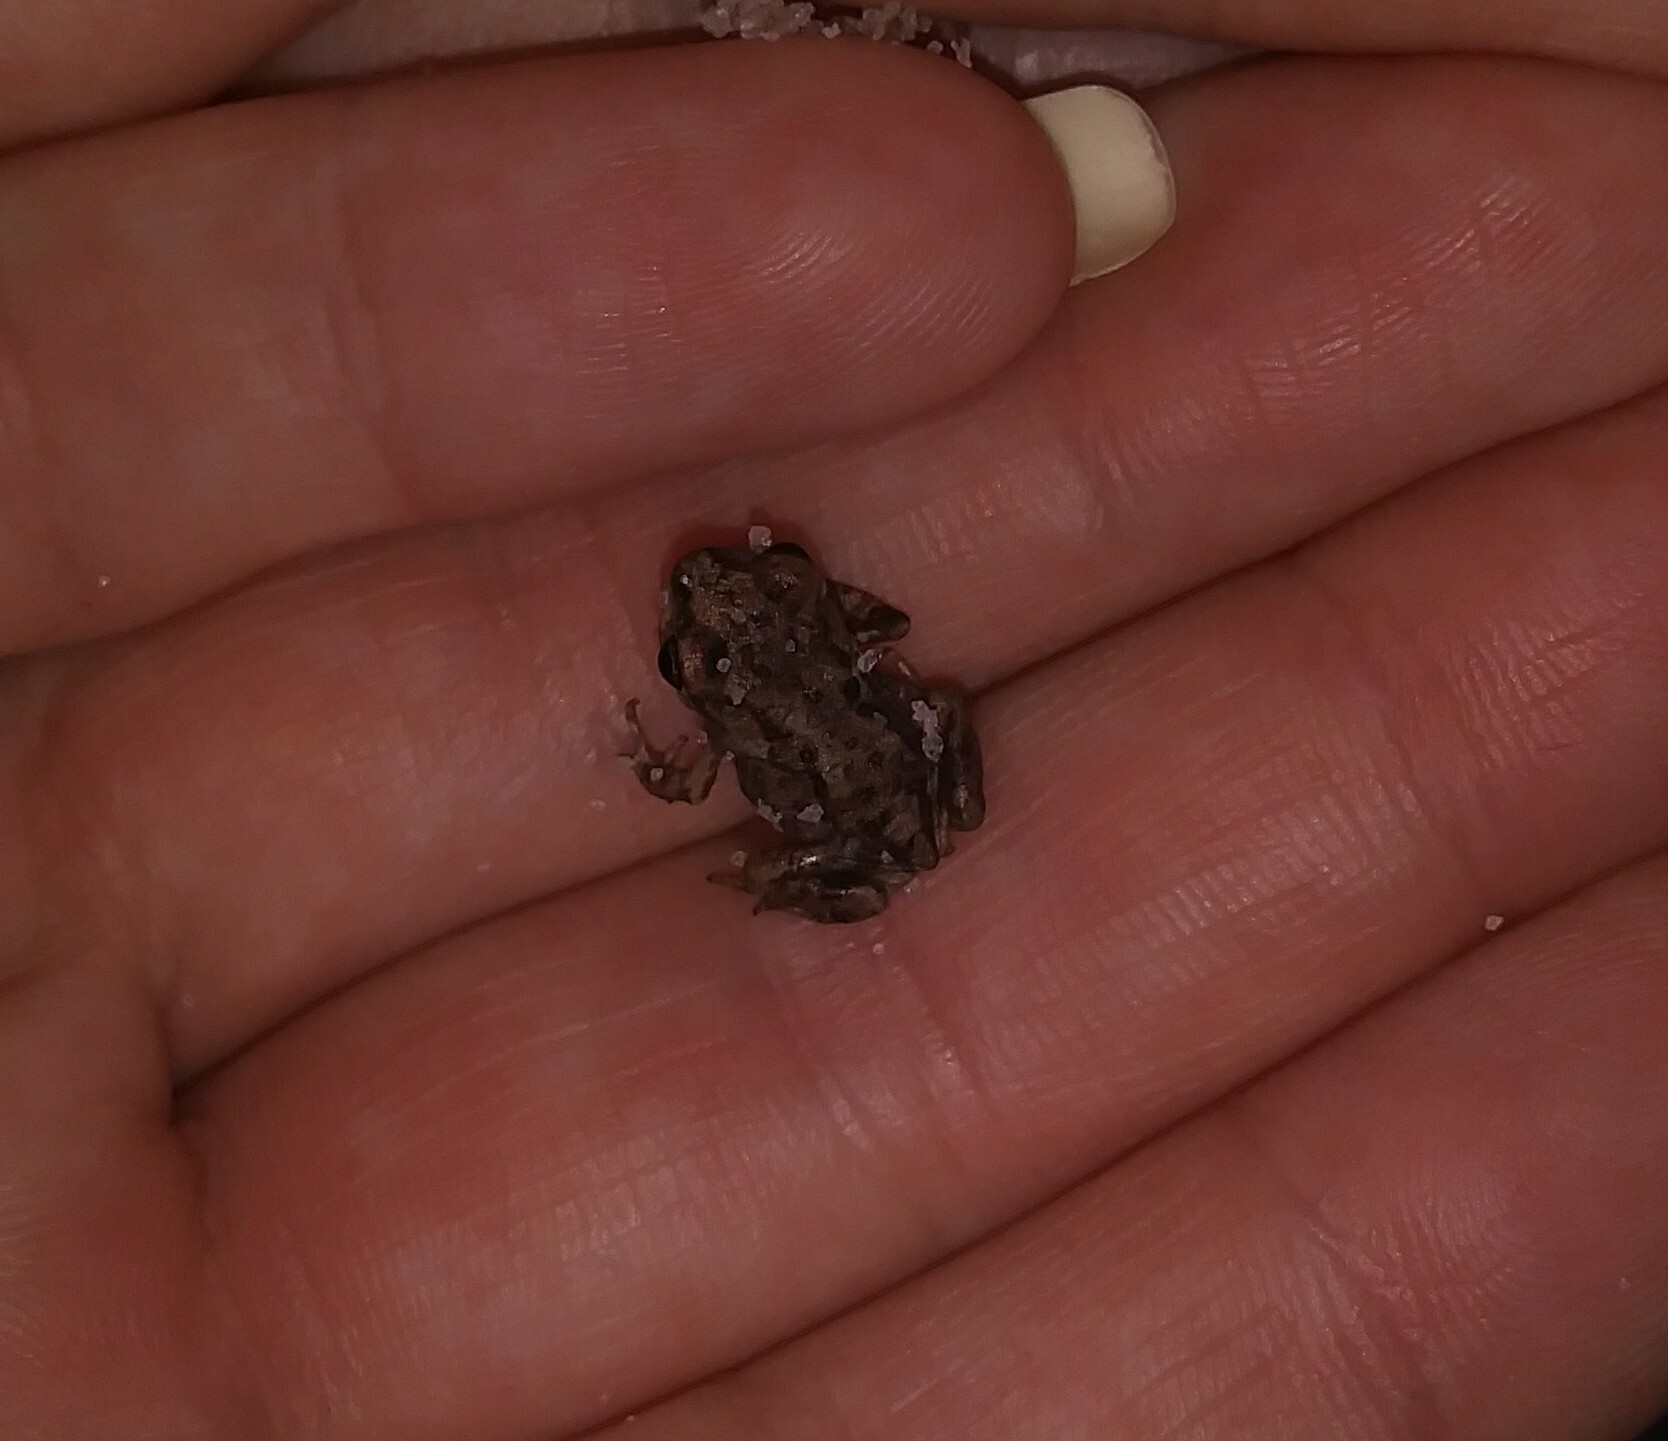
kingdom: Animalia
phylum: Chordata
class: Amphibia
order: Anura
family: Scaphiopodidae
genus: Scaphiopus
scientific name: Scaphiopus holbrookii
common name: Eastern spadefoot toad
